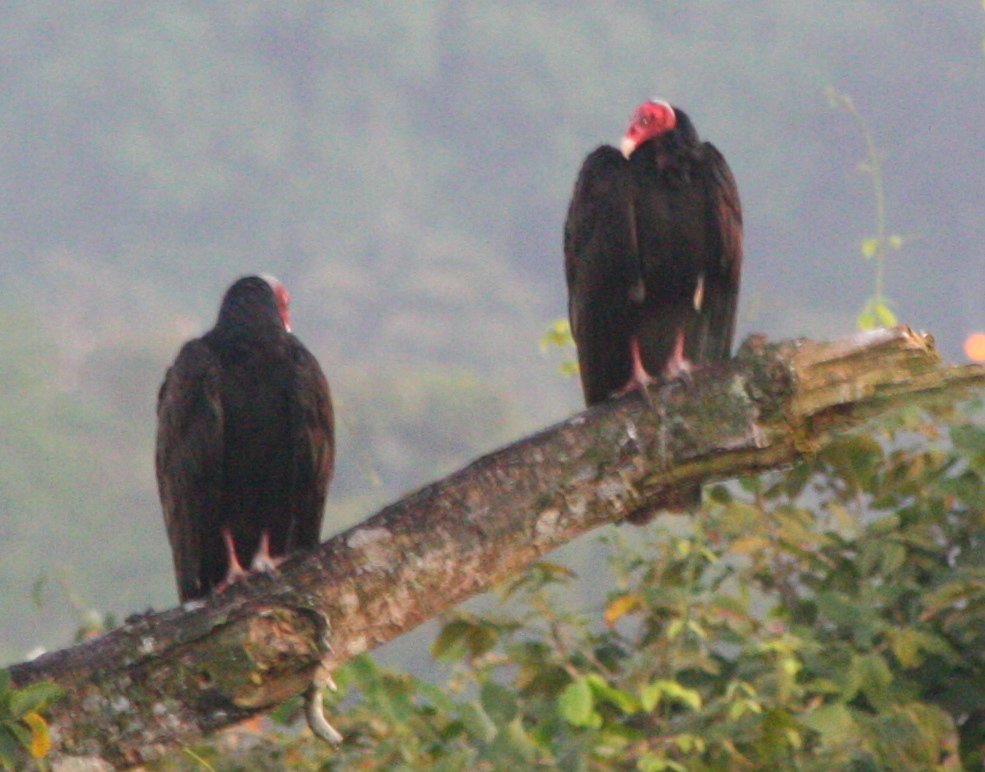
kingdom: Animalia
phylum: Chordata
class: Aves
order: Accipitriformes
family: Cathartidae
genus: Cathartes
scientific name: Cathartes aura
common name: Turkey vulture
